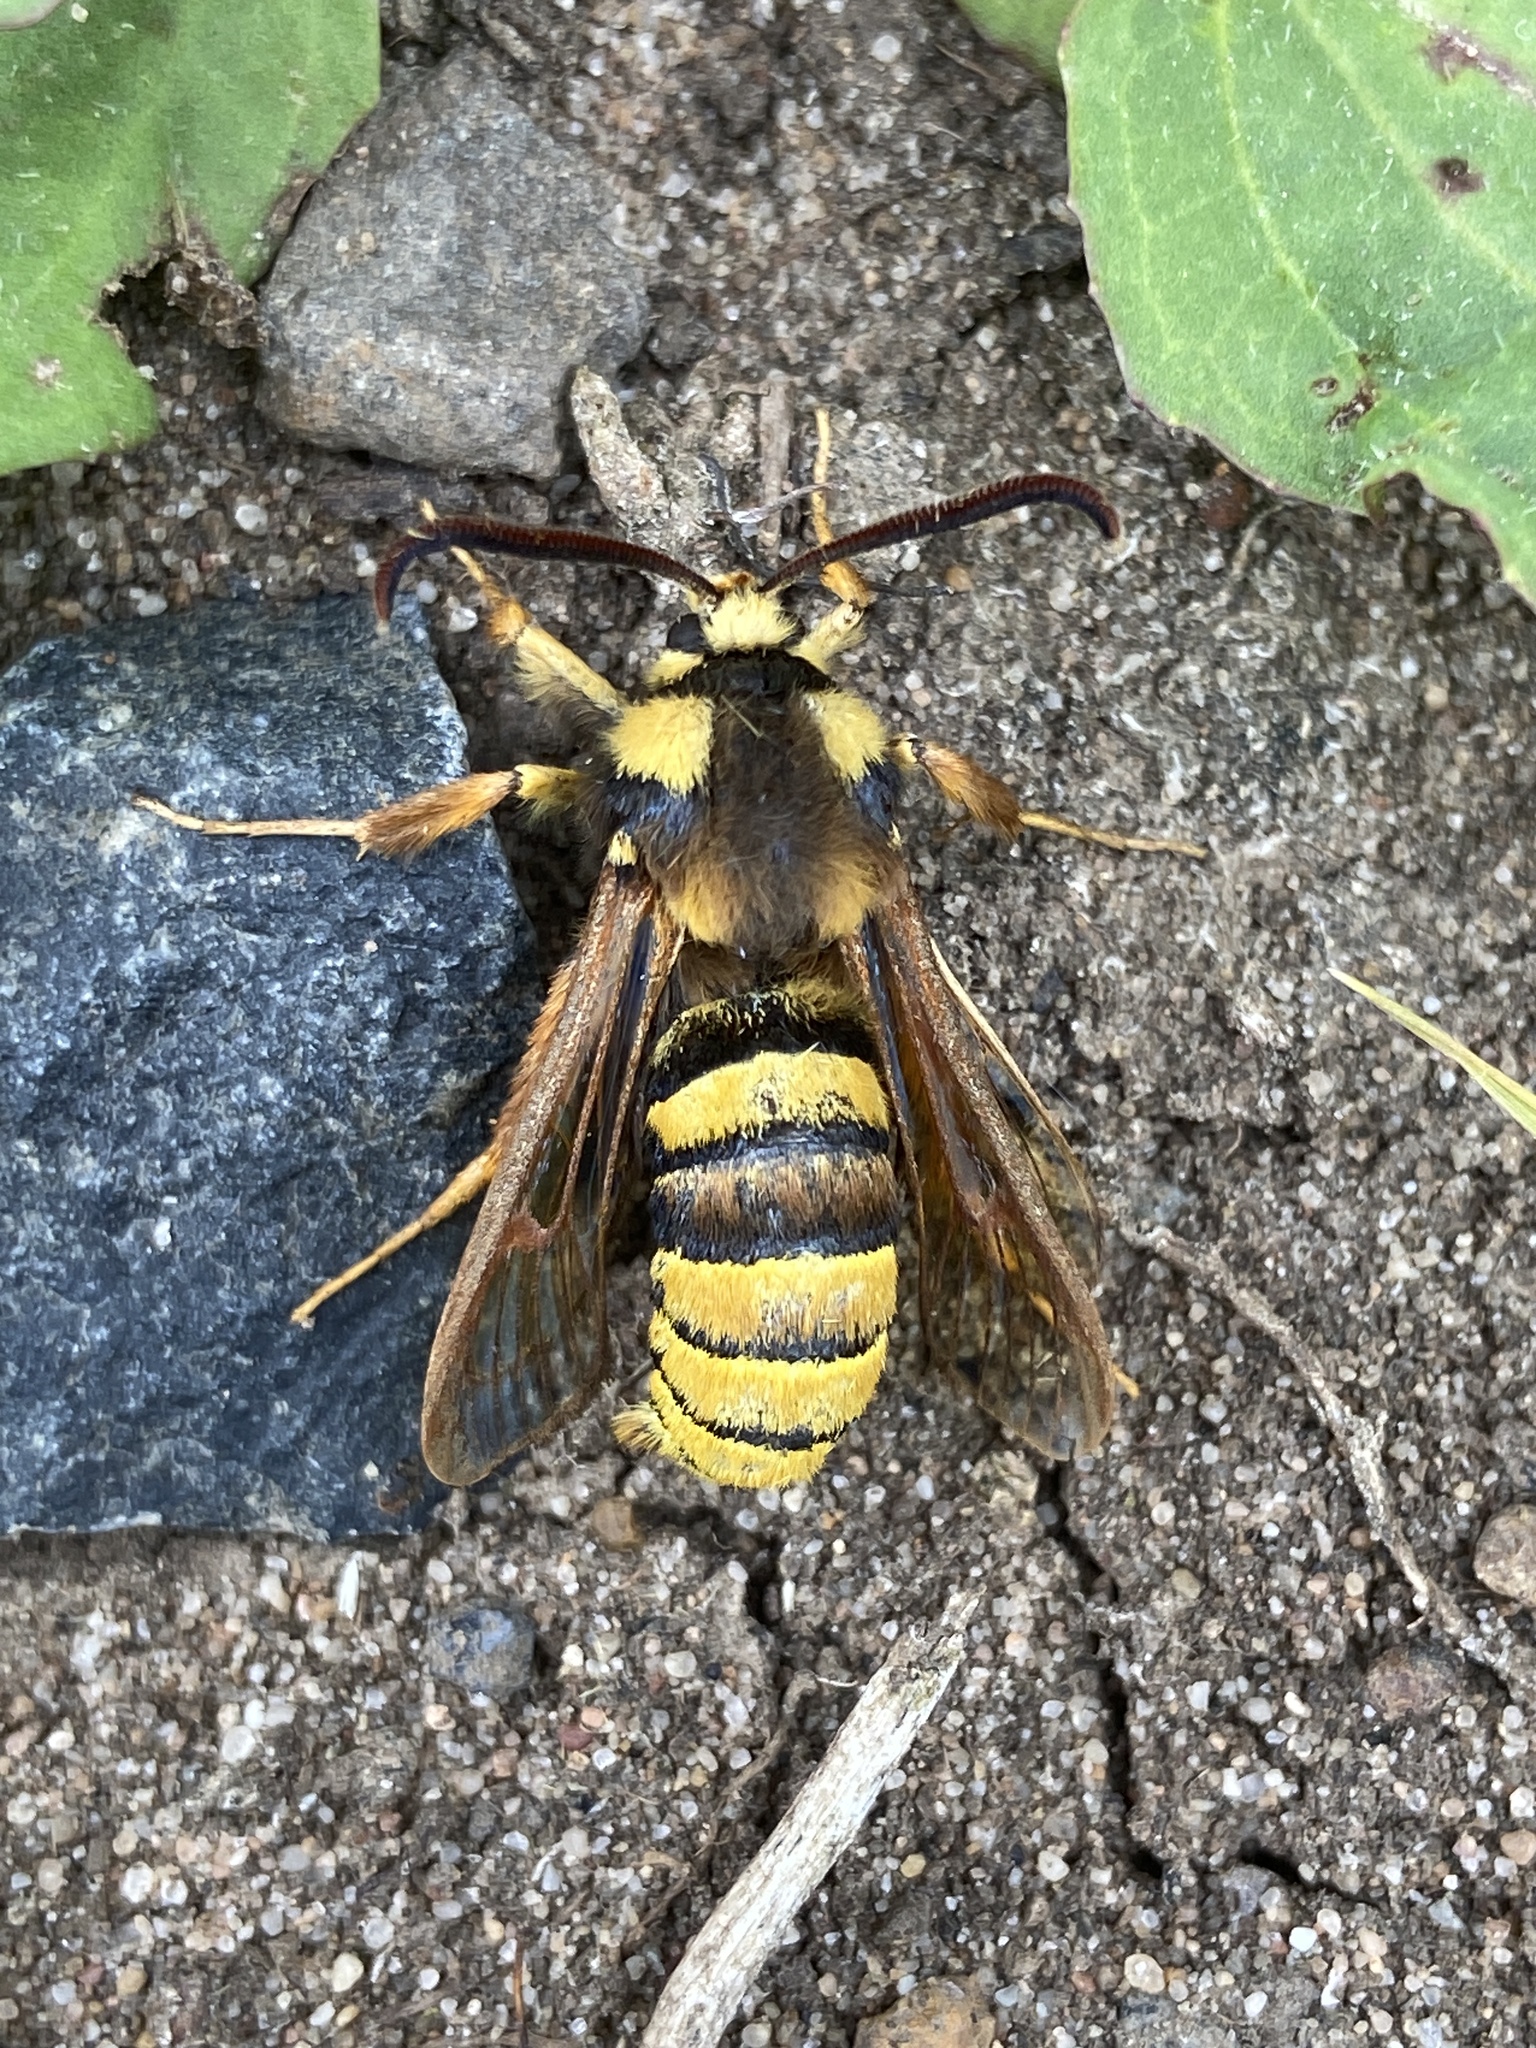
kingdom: Animalia
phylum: Arthropoda
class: Insecta
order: Lepidoptera
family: Sesiidae
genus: Sesia
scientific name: Sesia apiformis
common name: Hornet moth
